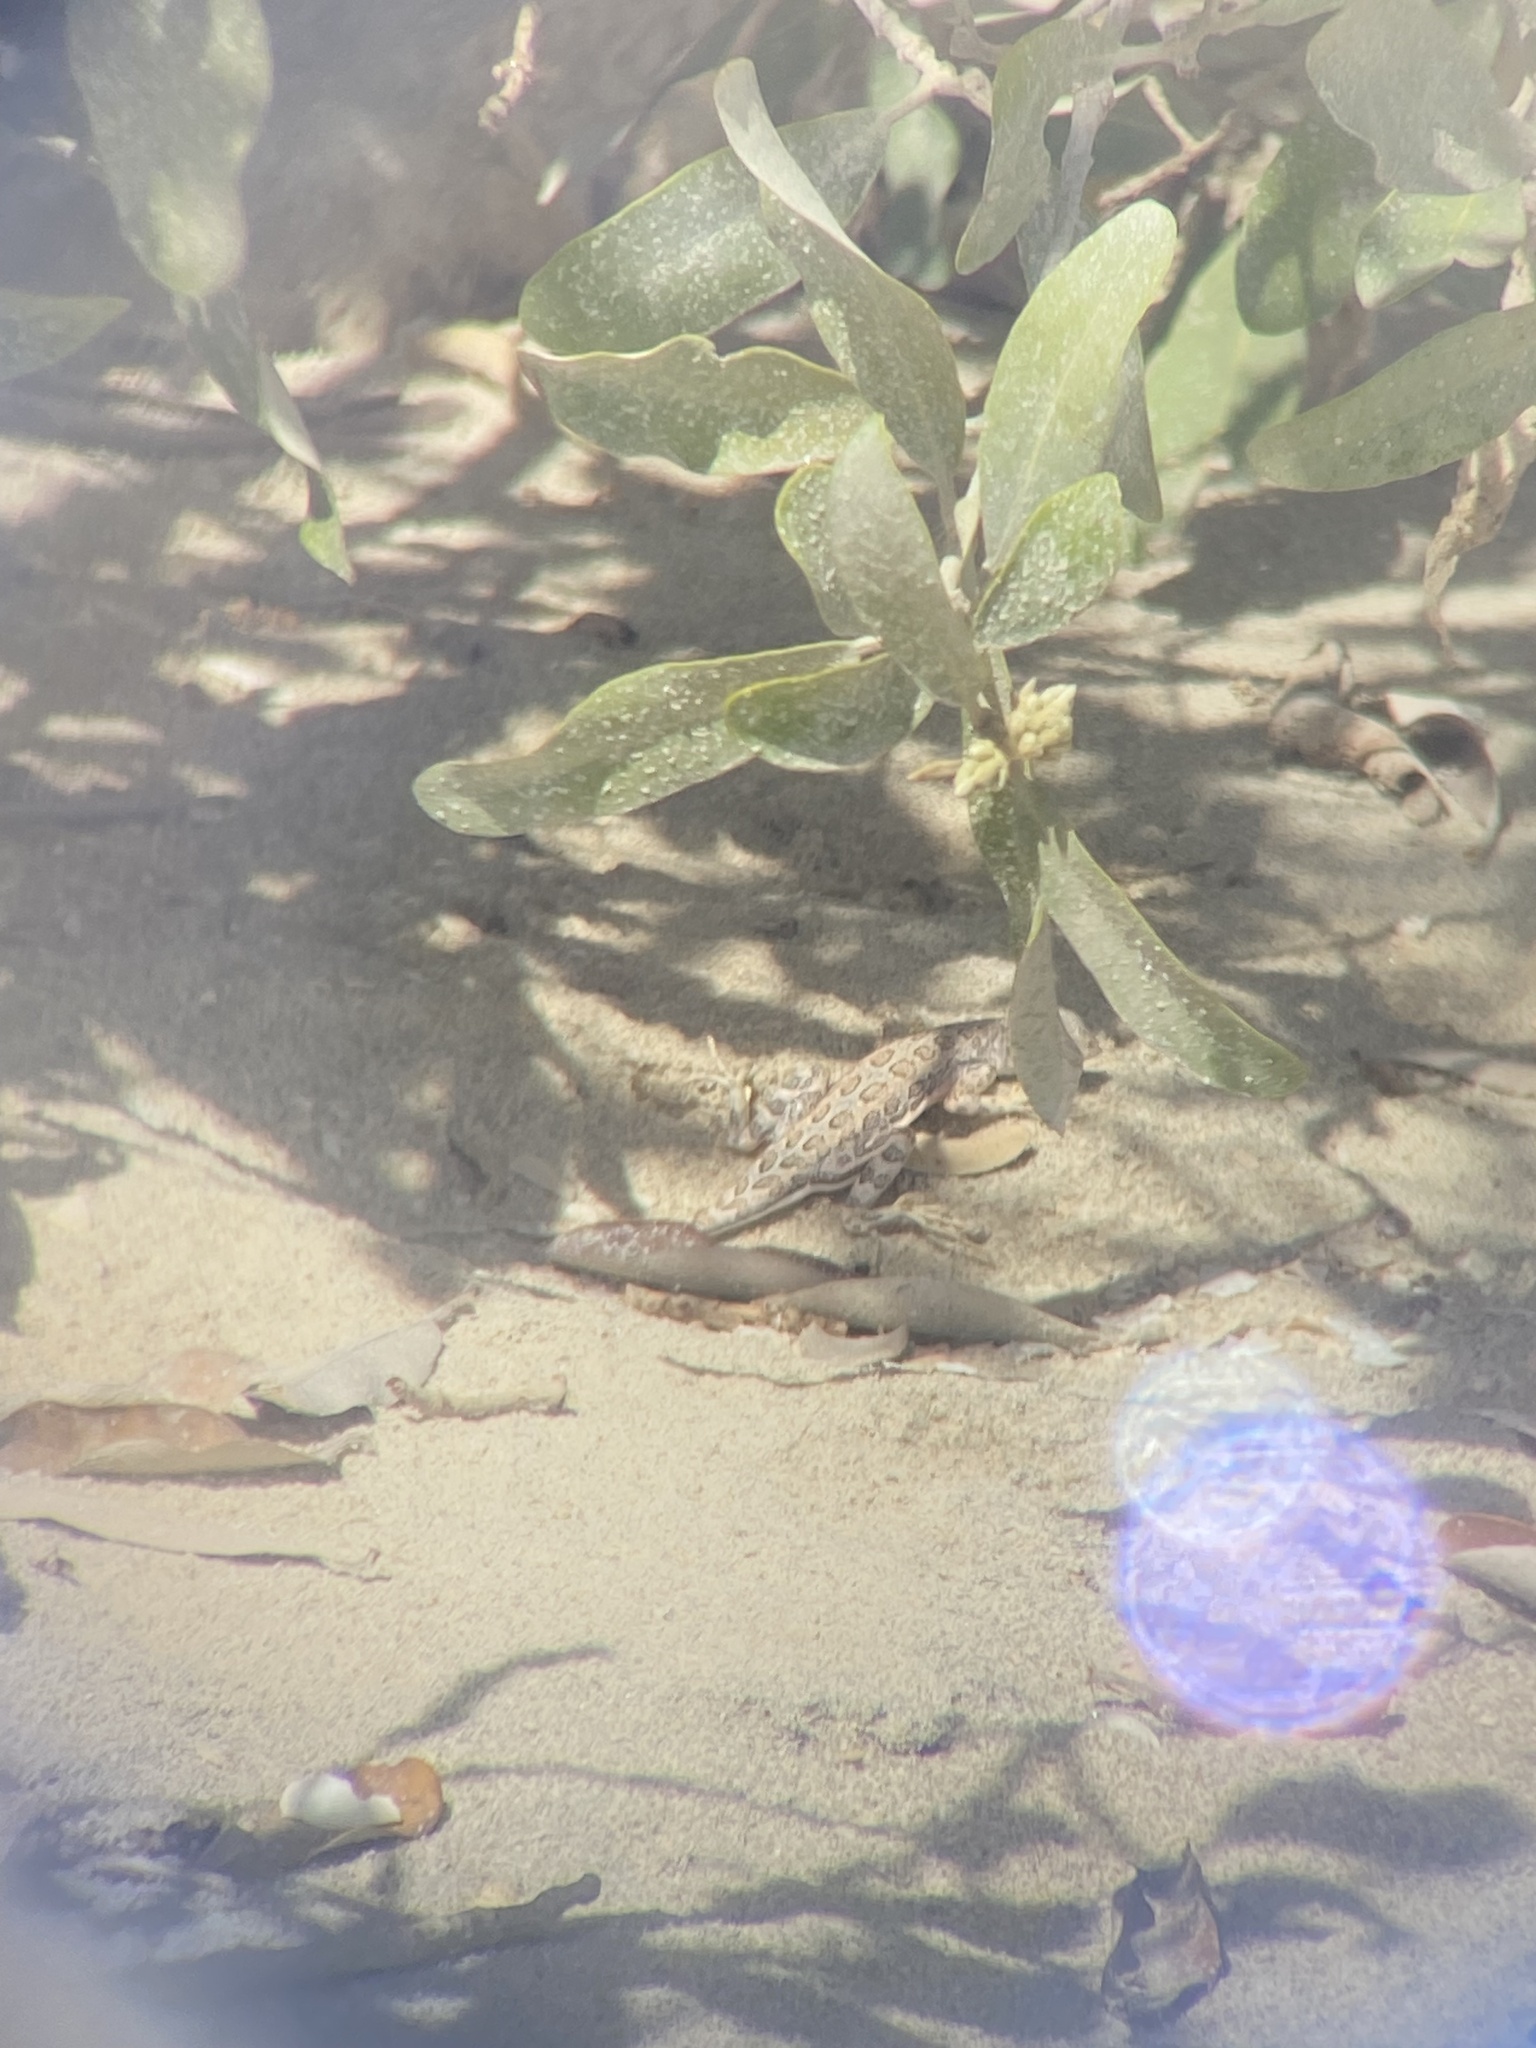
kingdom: Animalia
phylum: Chordata
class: Squamata
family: Phrynosomatidae
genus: Callisaurus
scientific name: Callisaurus draconoides
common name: Zebra-tailed lizard
